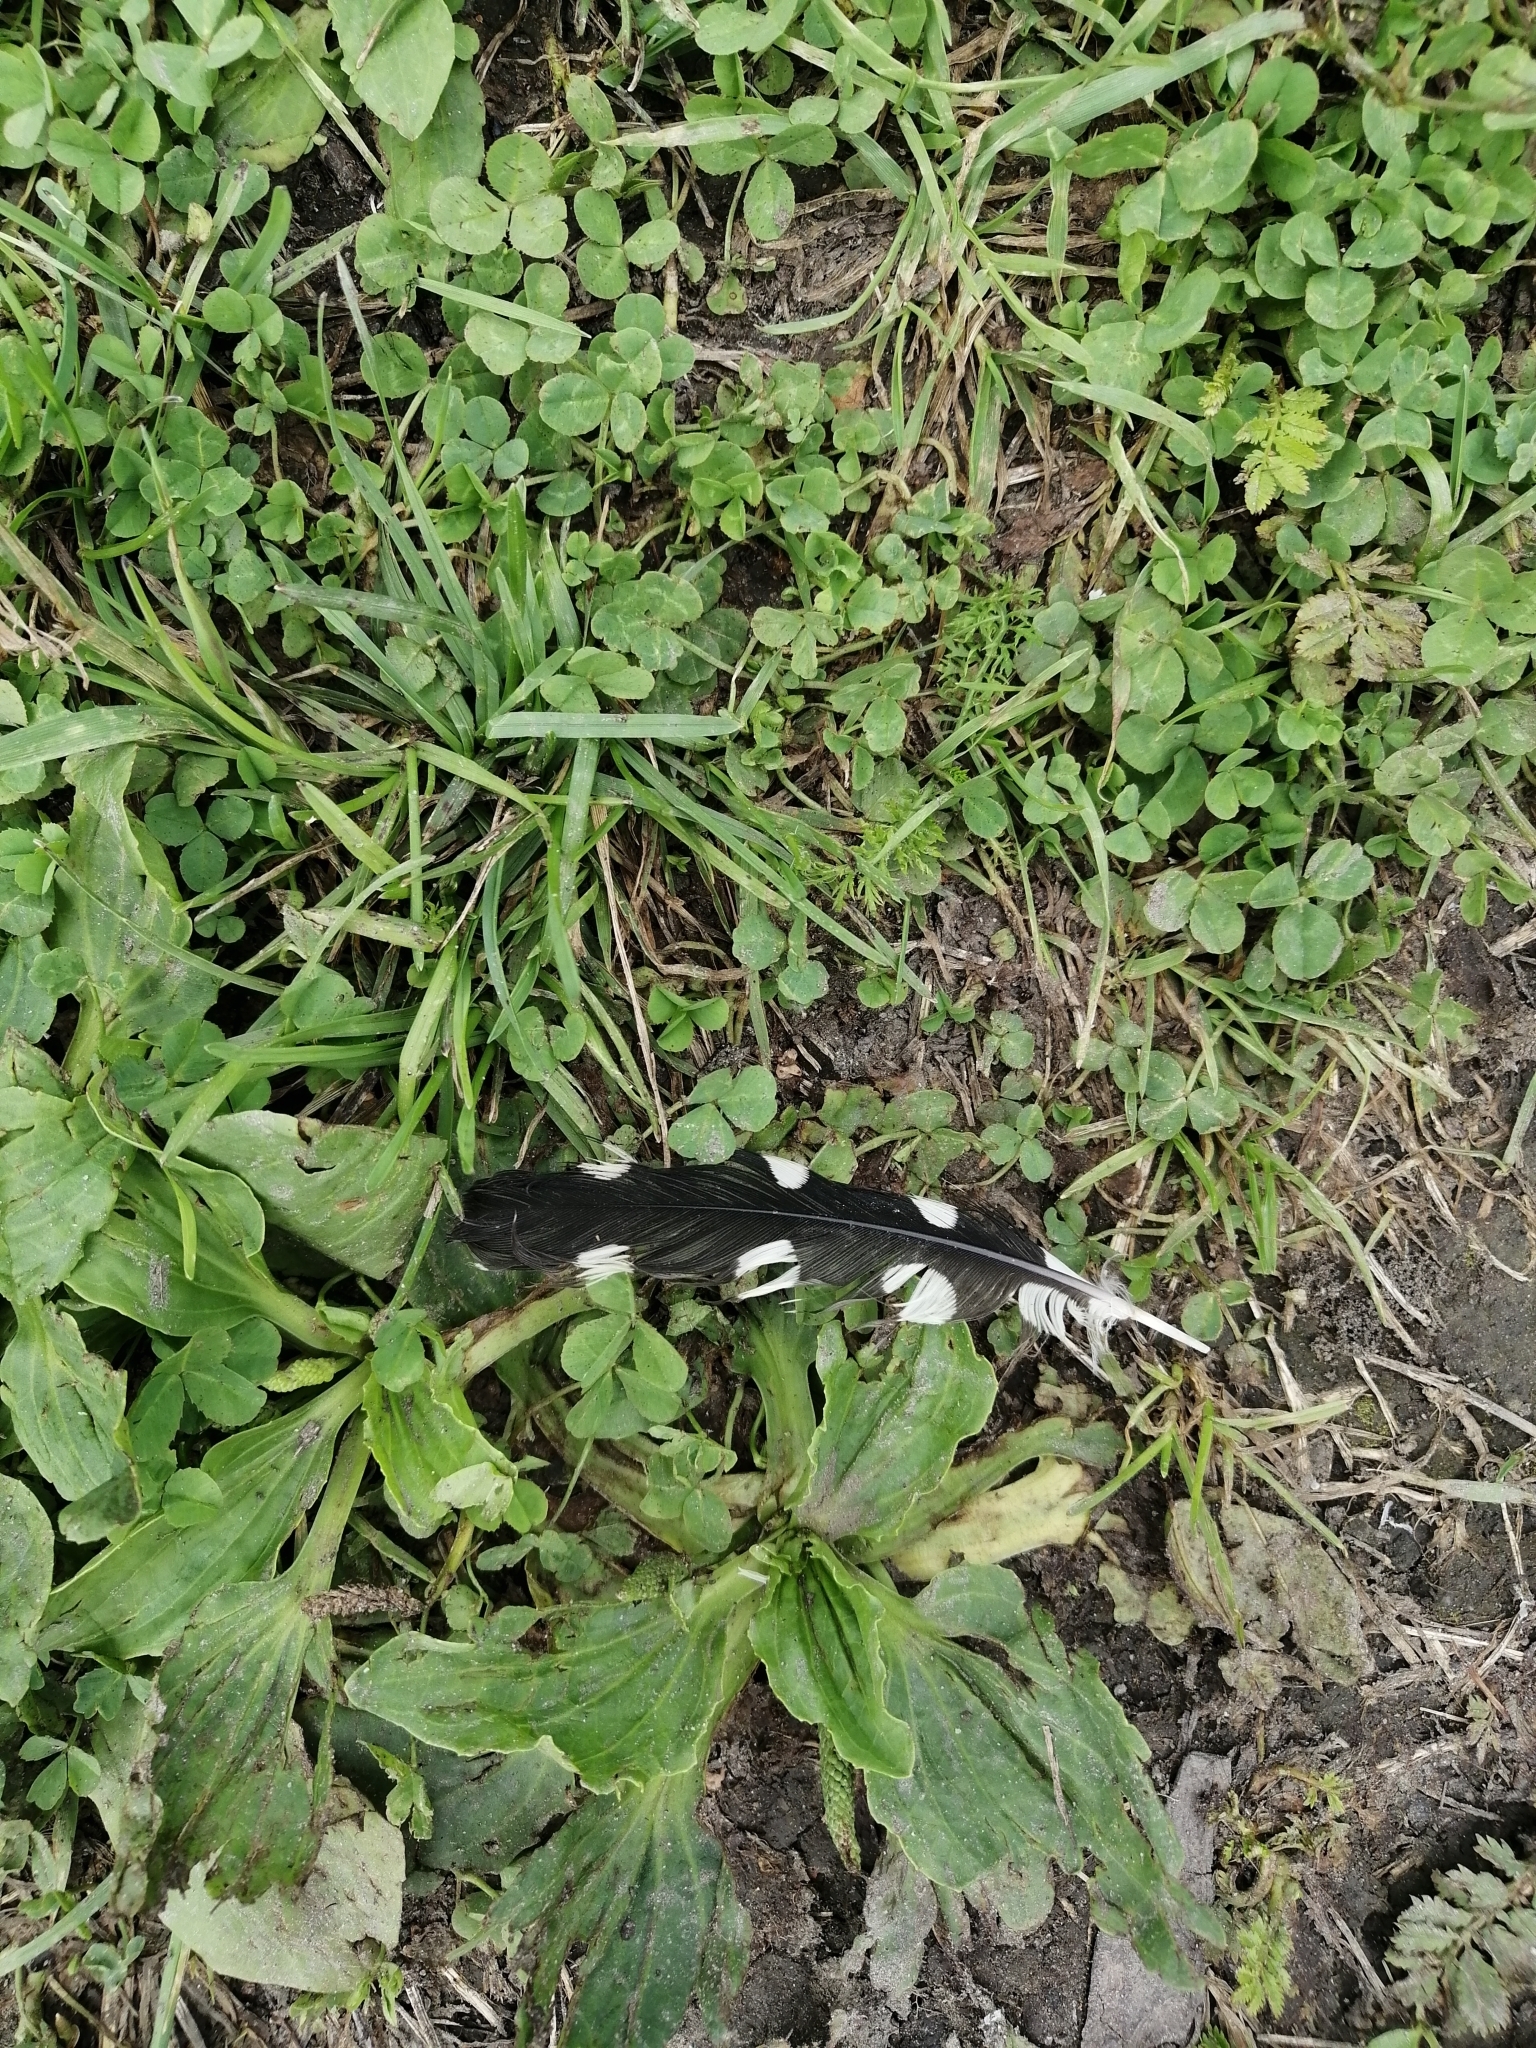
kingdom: Animalia
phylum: Chordata
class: Aves
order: Piciformes
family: Picidae
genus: Dendrocopos
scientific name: Dendrocopos major
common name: Great spotted woodpecker
